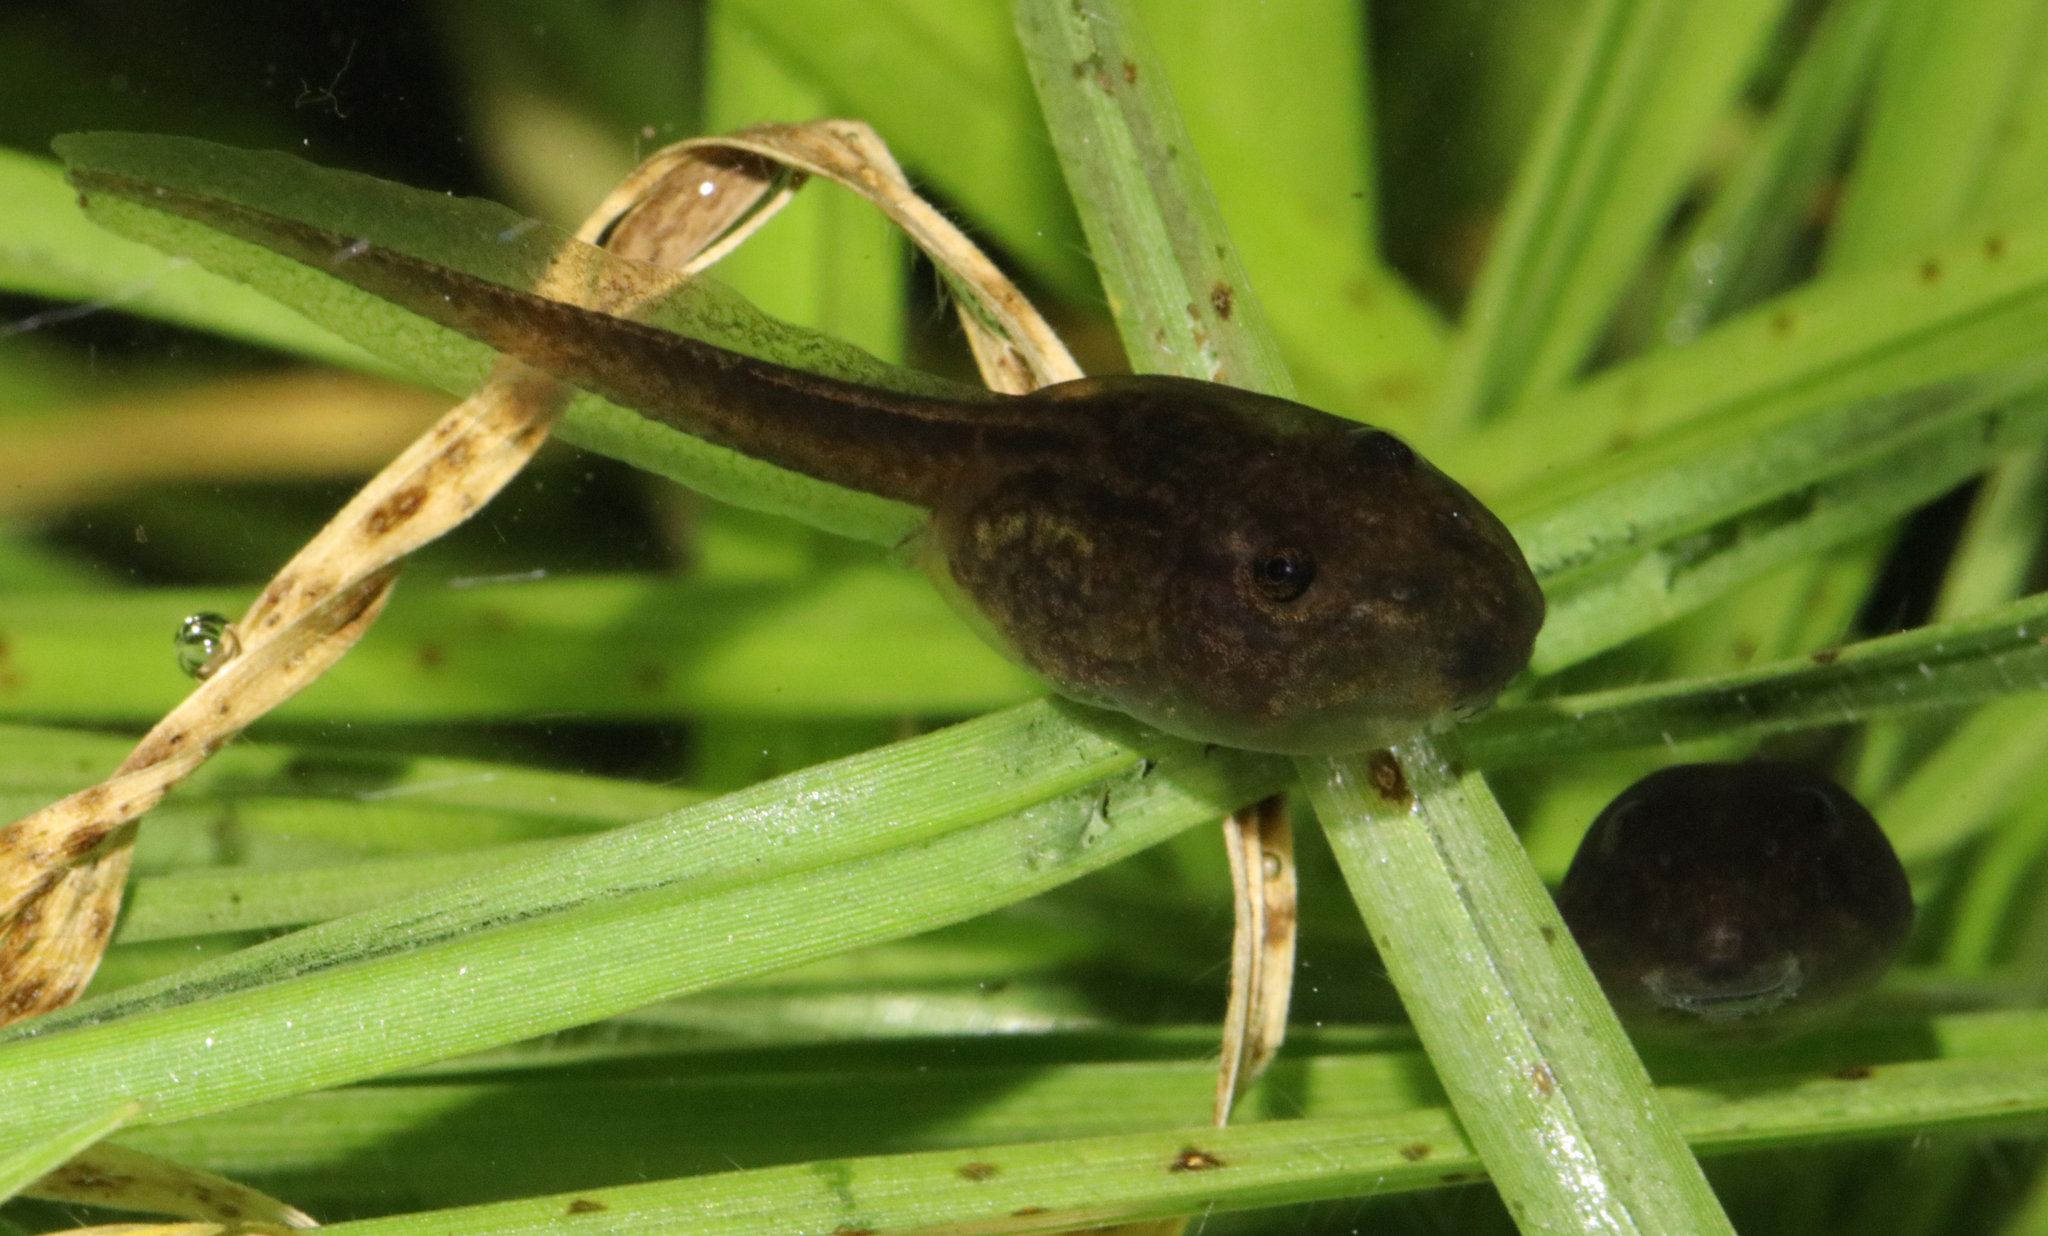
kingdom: Animalia
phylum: Chordata
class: Amphibia
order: Anura
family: Pyxicephalidae
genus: Strongylopus
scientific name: Strongylopus grayii
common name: Gray's stream frog
